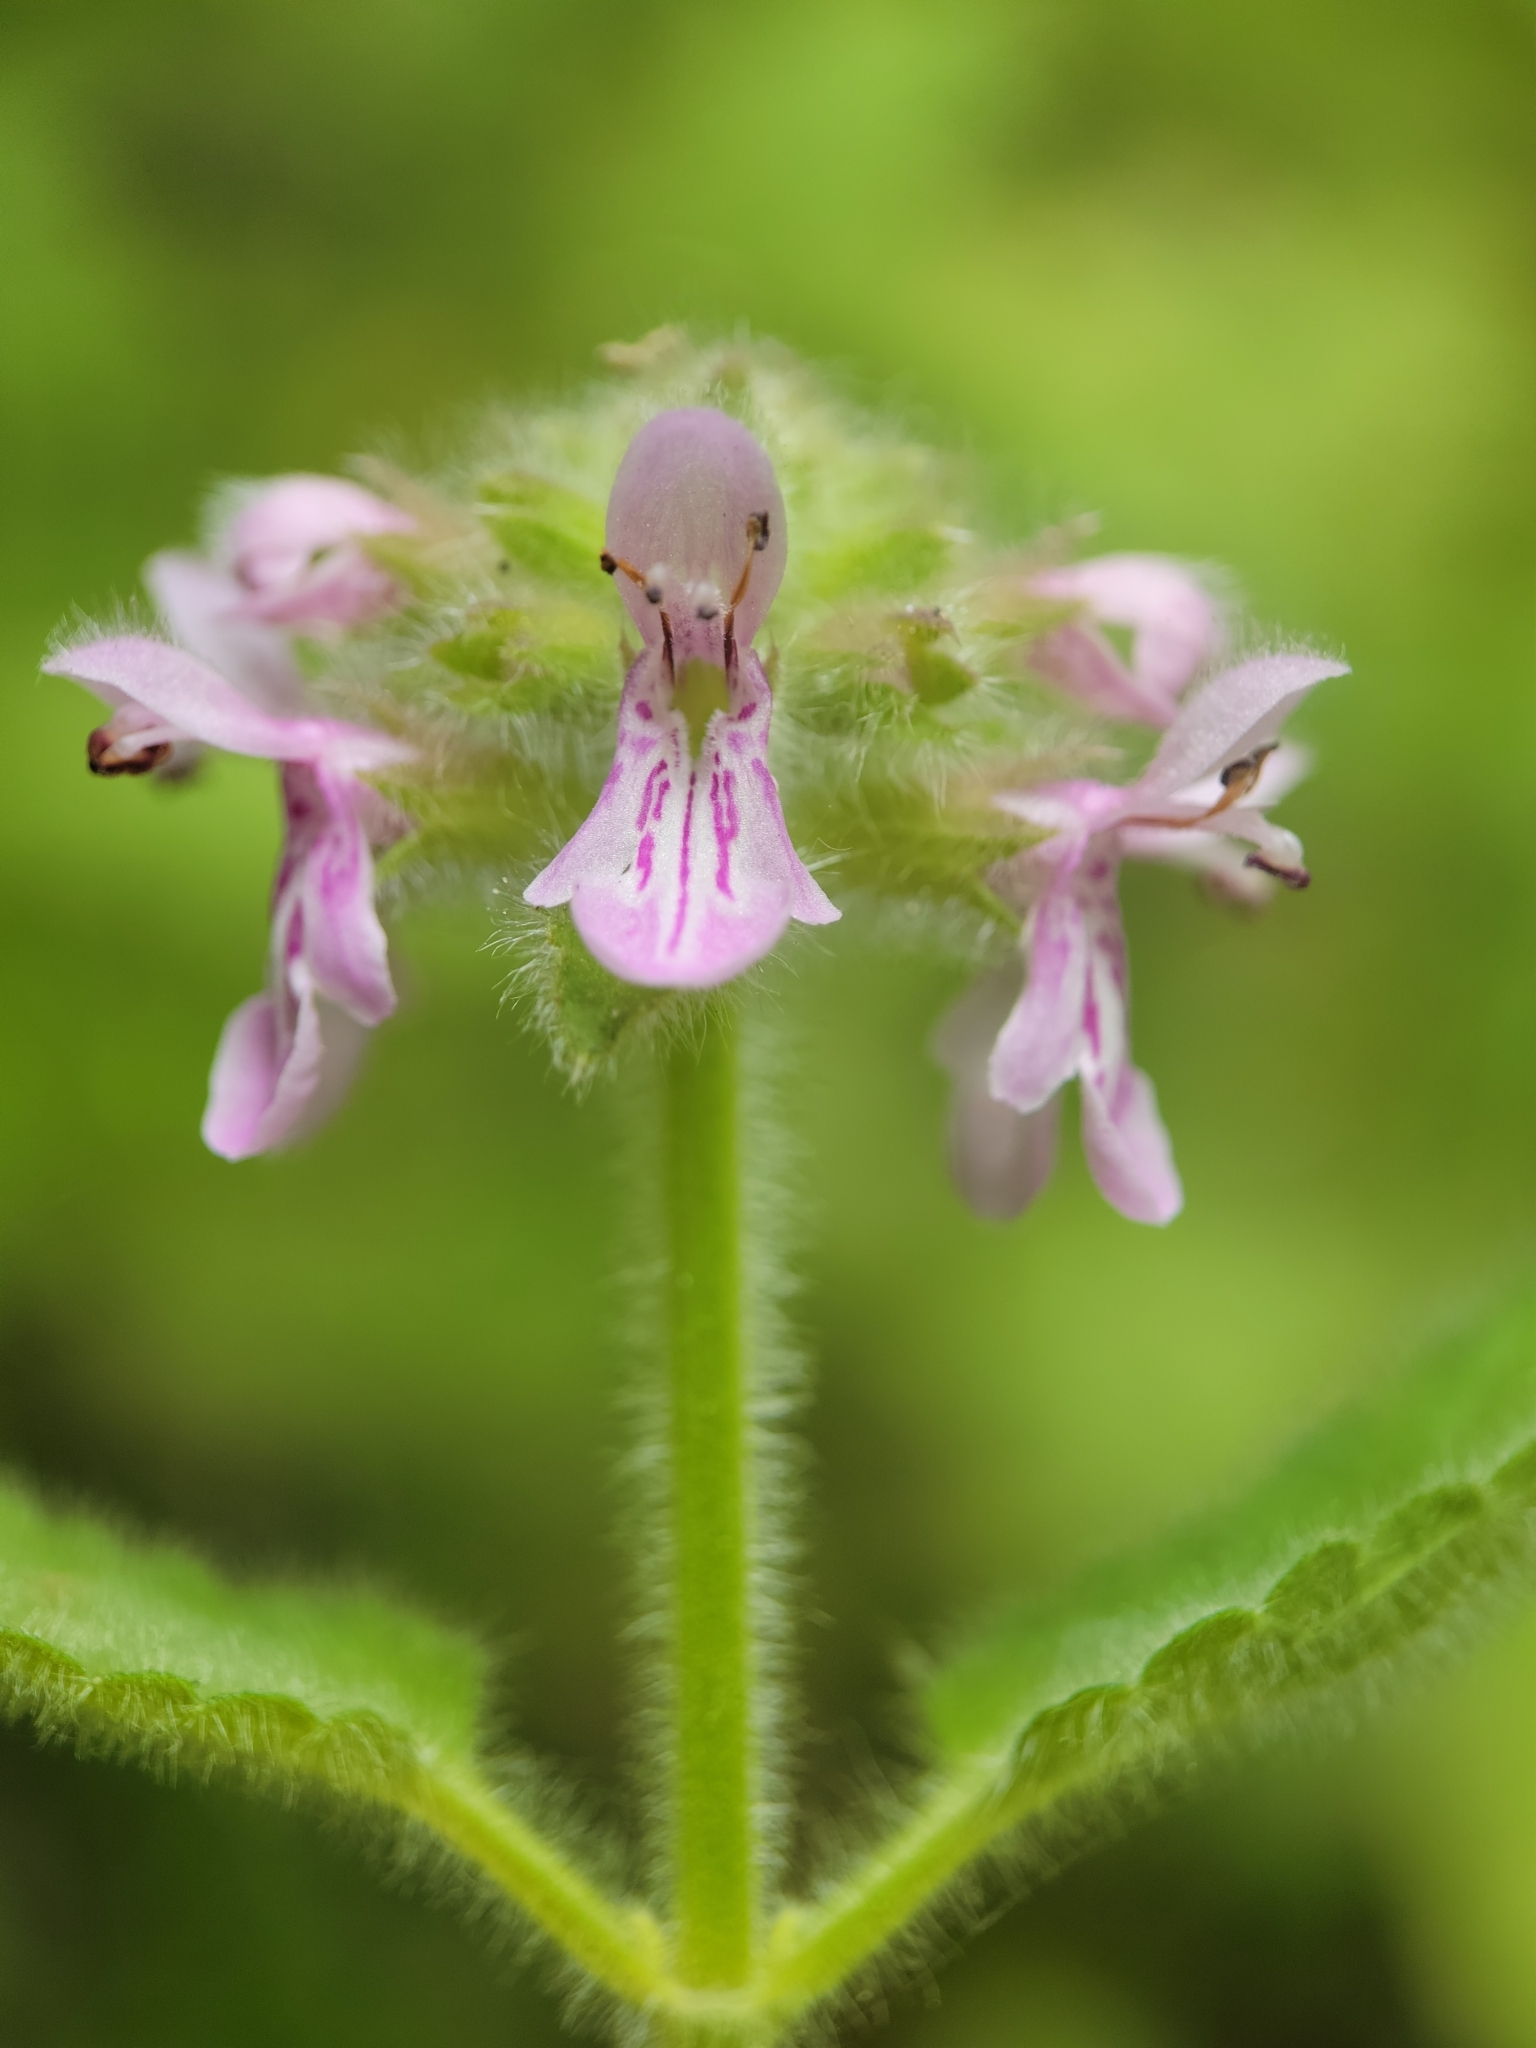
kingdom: Plantae
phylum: Tracheophyta
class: Magnoliopsida
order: Lamiales
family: Lamiaceae
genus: Stachys
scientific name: Stachys pycnantha
